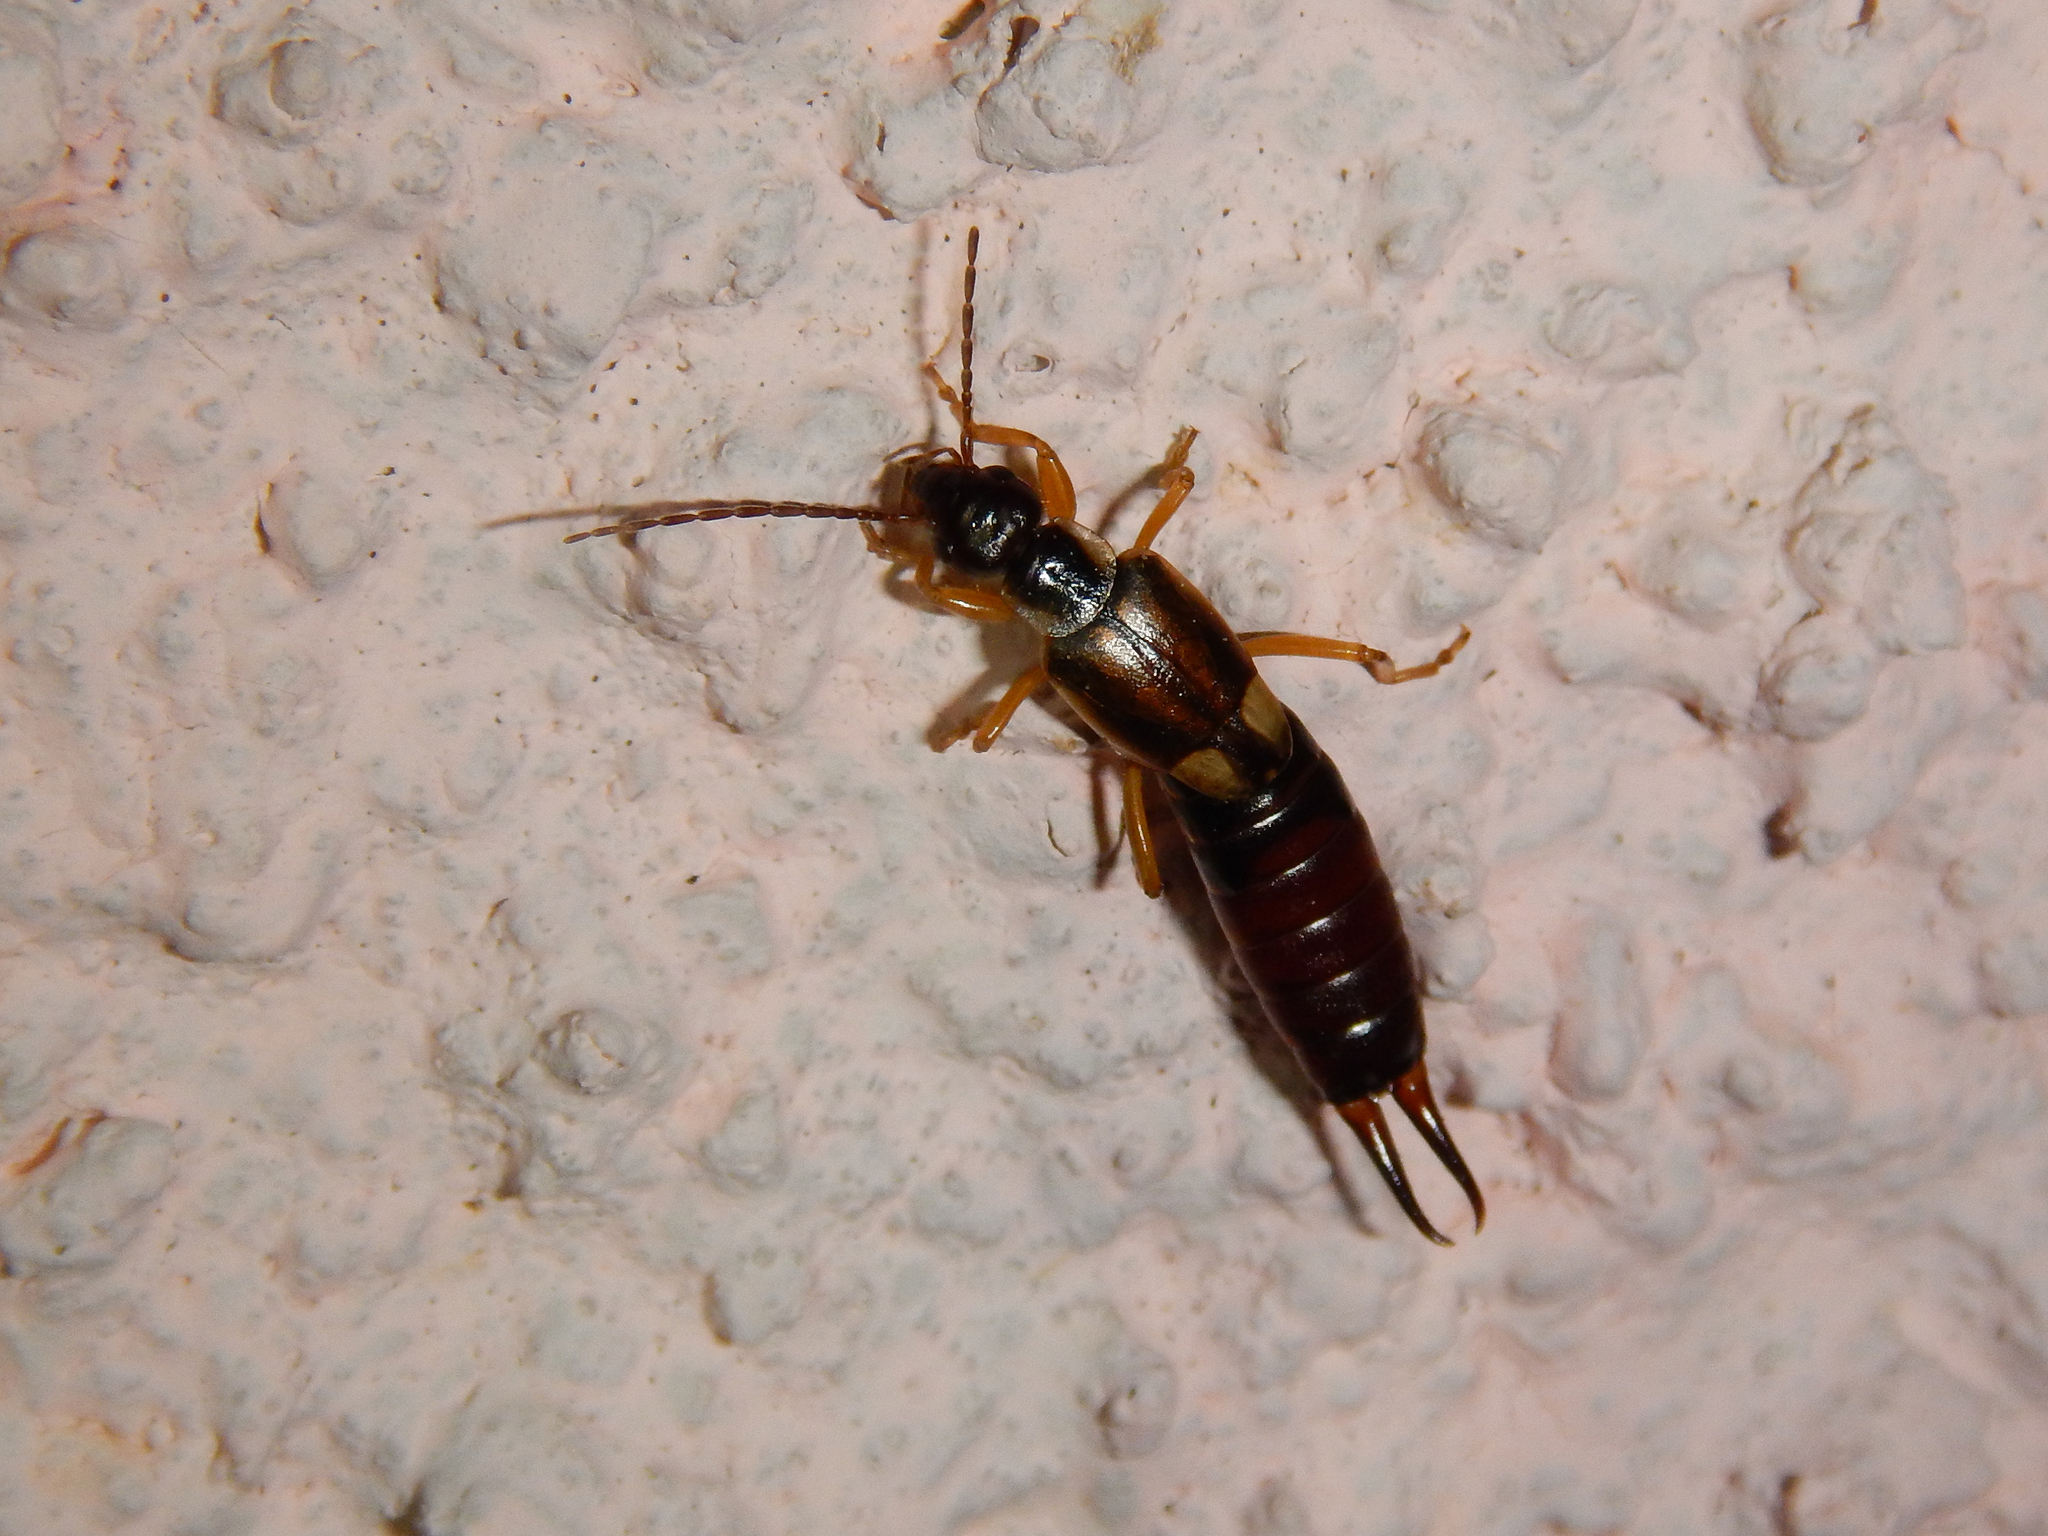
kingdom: Animalia
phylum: Arthropoda
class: Insecta
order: Dermaptera
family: Forficulidae
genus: Forficula
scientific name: Forficula
